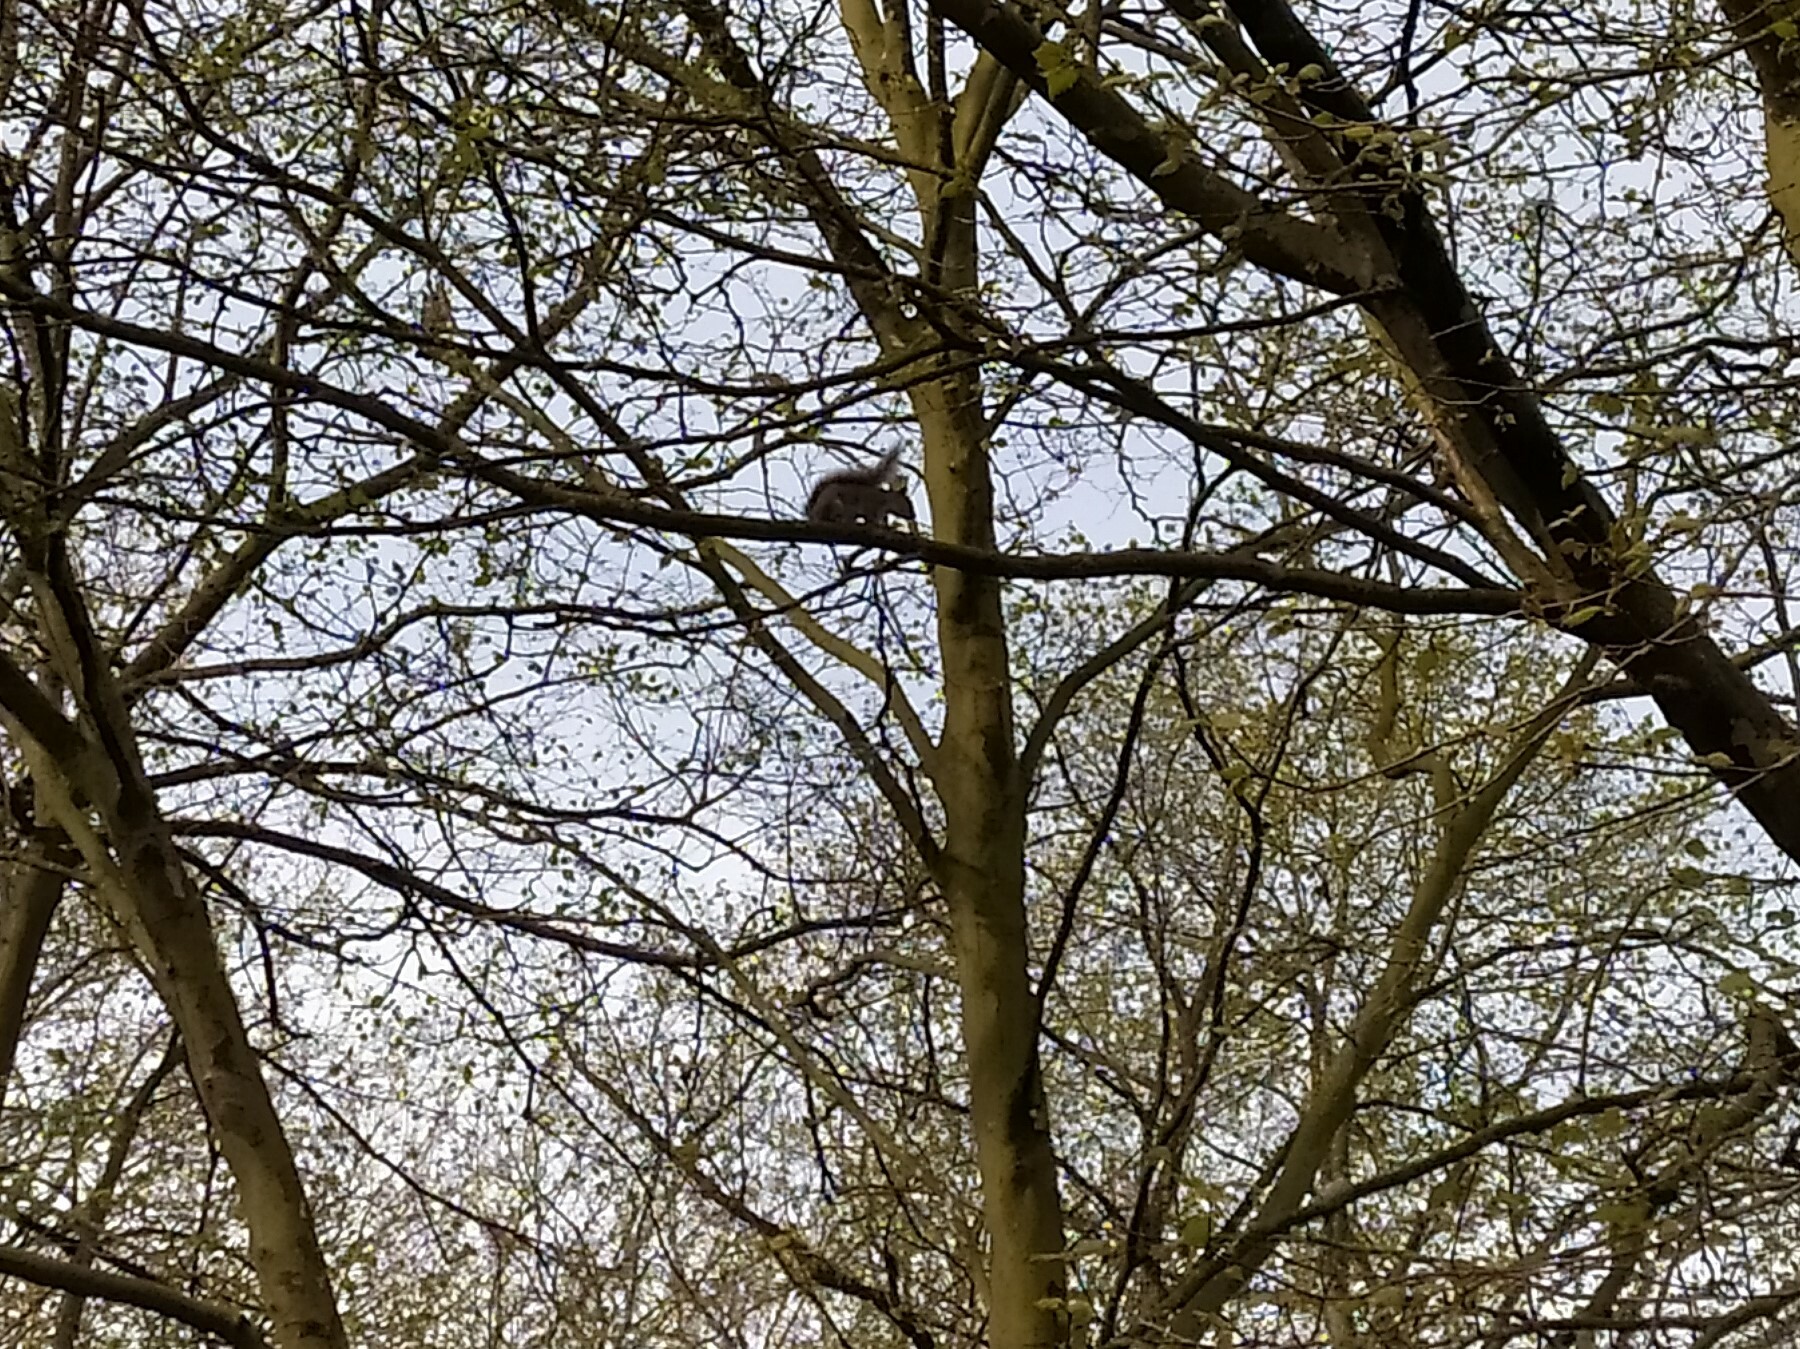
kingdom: Animalia
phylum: Chordata
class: Mammalia
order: Rodentia
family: Sciuridae
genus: Sciurus
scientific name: Sciurus carolinensis
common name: Eastern gray squirrel
